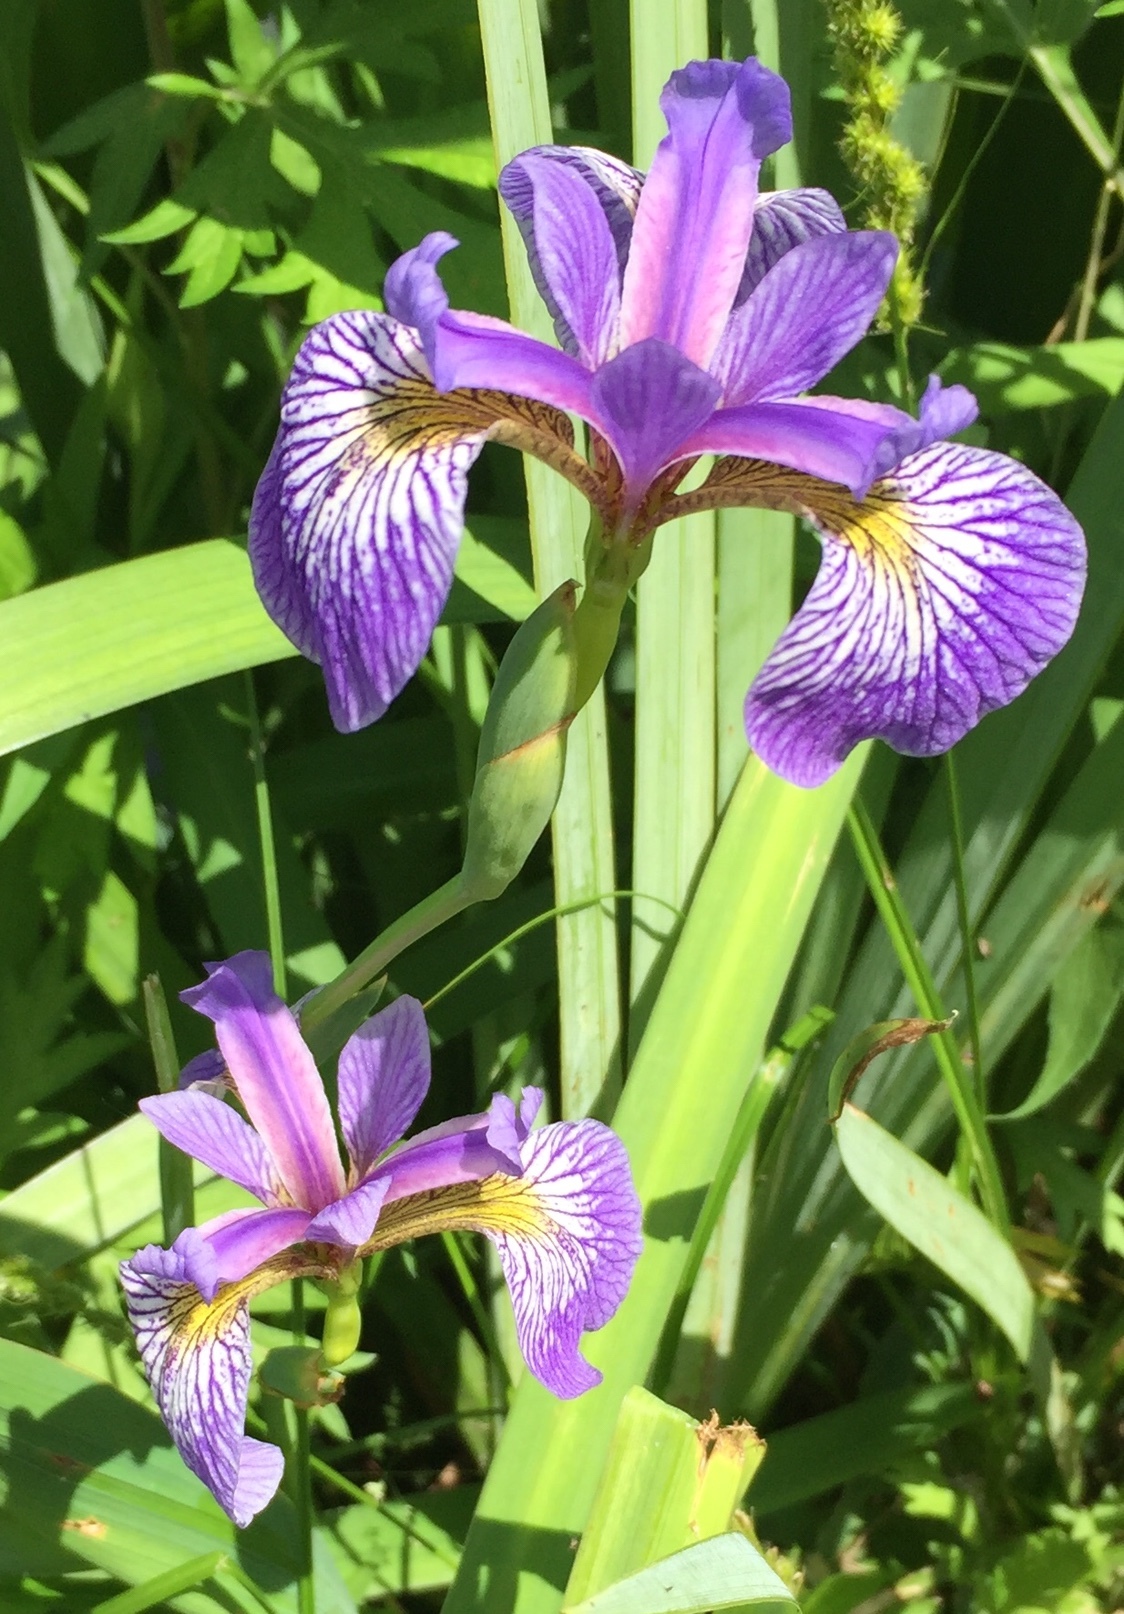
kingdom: Plantae
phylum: Tracheophyta
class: Liliopsida
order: Asparagales
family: Iridaceae
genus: Iris
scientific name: Iris versicolor
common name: Purple iris
